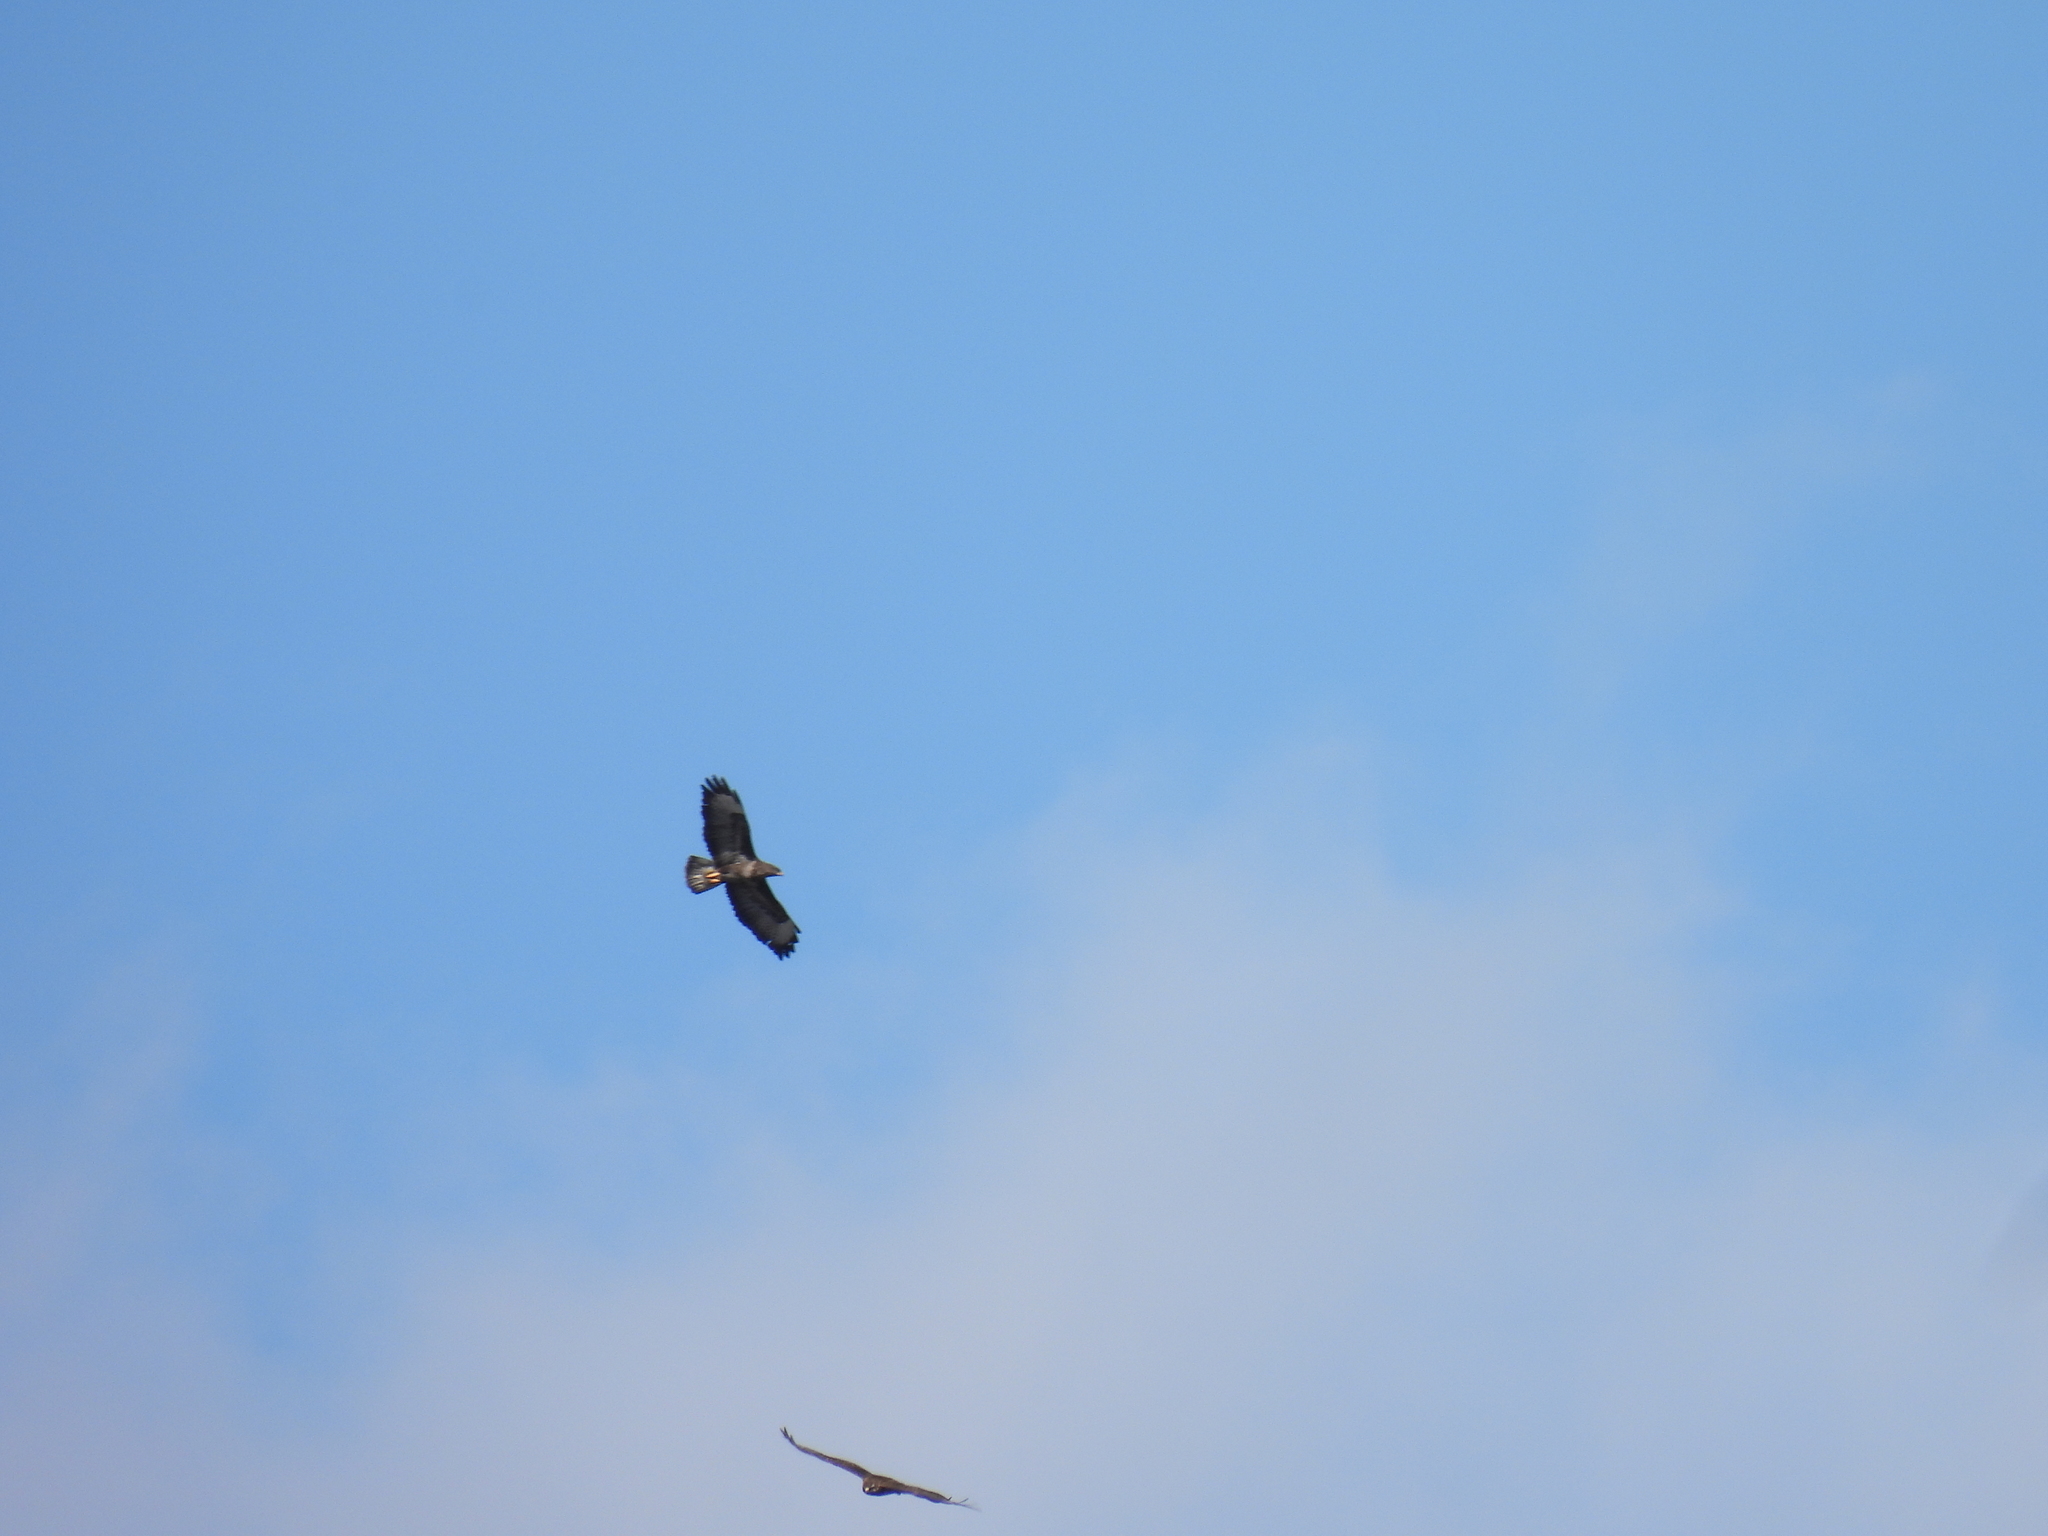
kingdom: Animalia
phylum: Chordata
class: Aves
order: Accipitriformes
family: Accipitridae
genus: Buteo
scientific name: Buteo buteo
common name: Common buzzard
